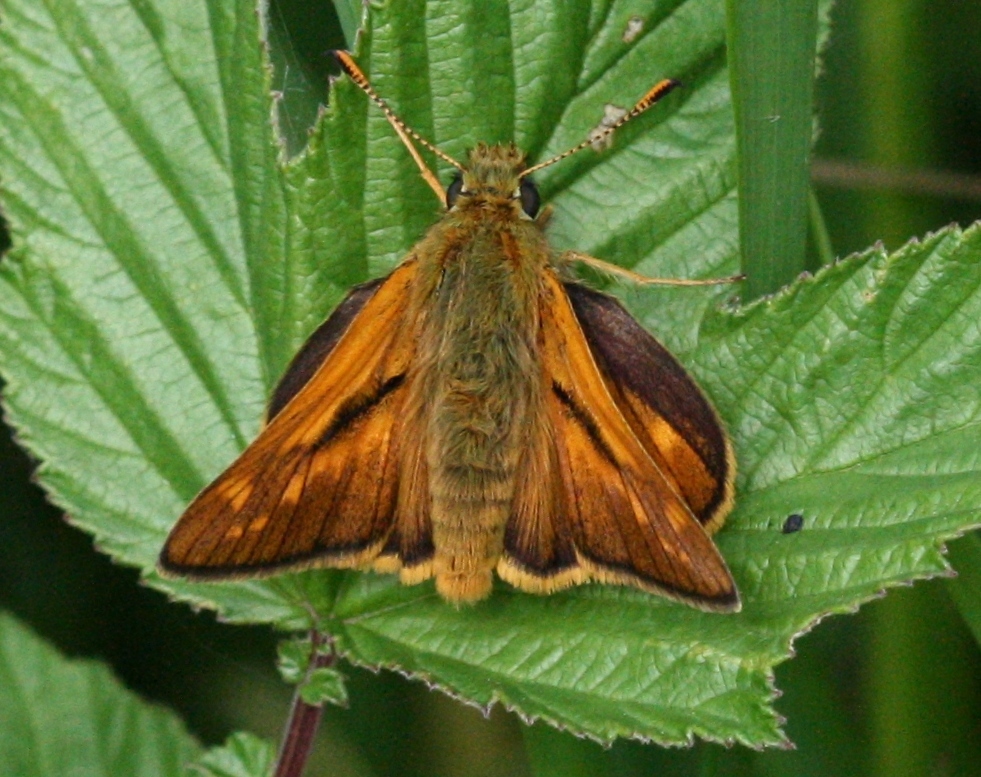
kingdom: Animalia
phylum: Arthropoda
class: Insecta
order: Lepidoptera
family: Hesperiidae
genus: Ochlodes
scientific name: Ochlodes venata
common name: Large skipper
